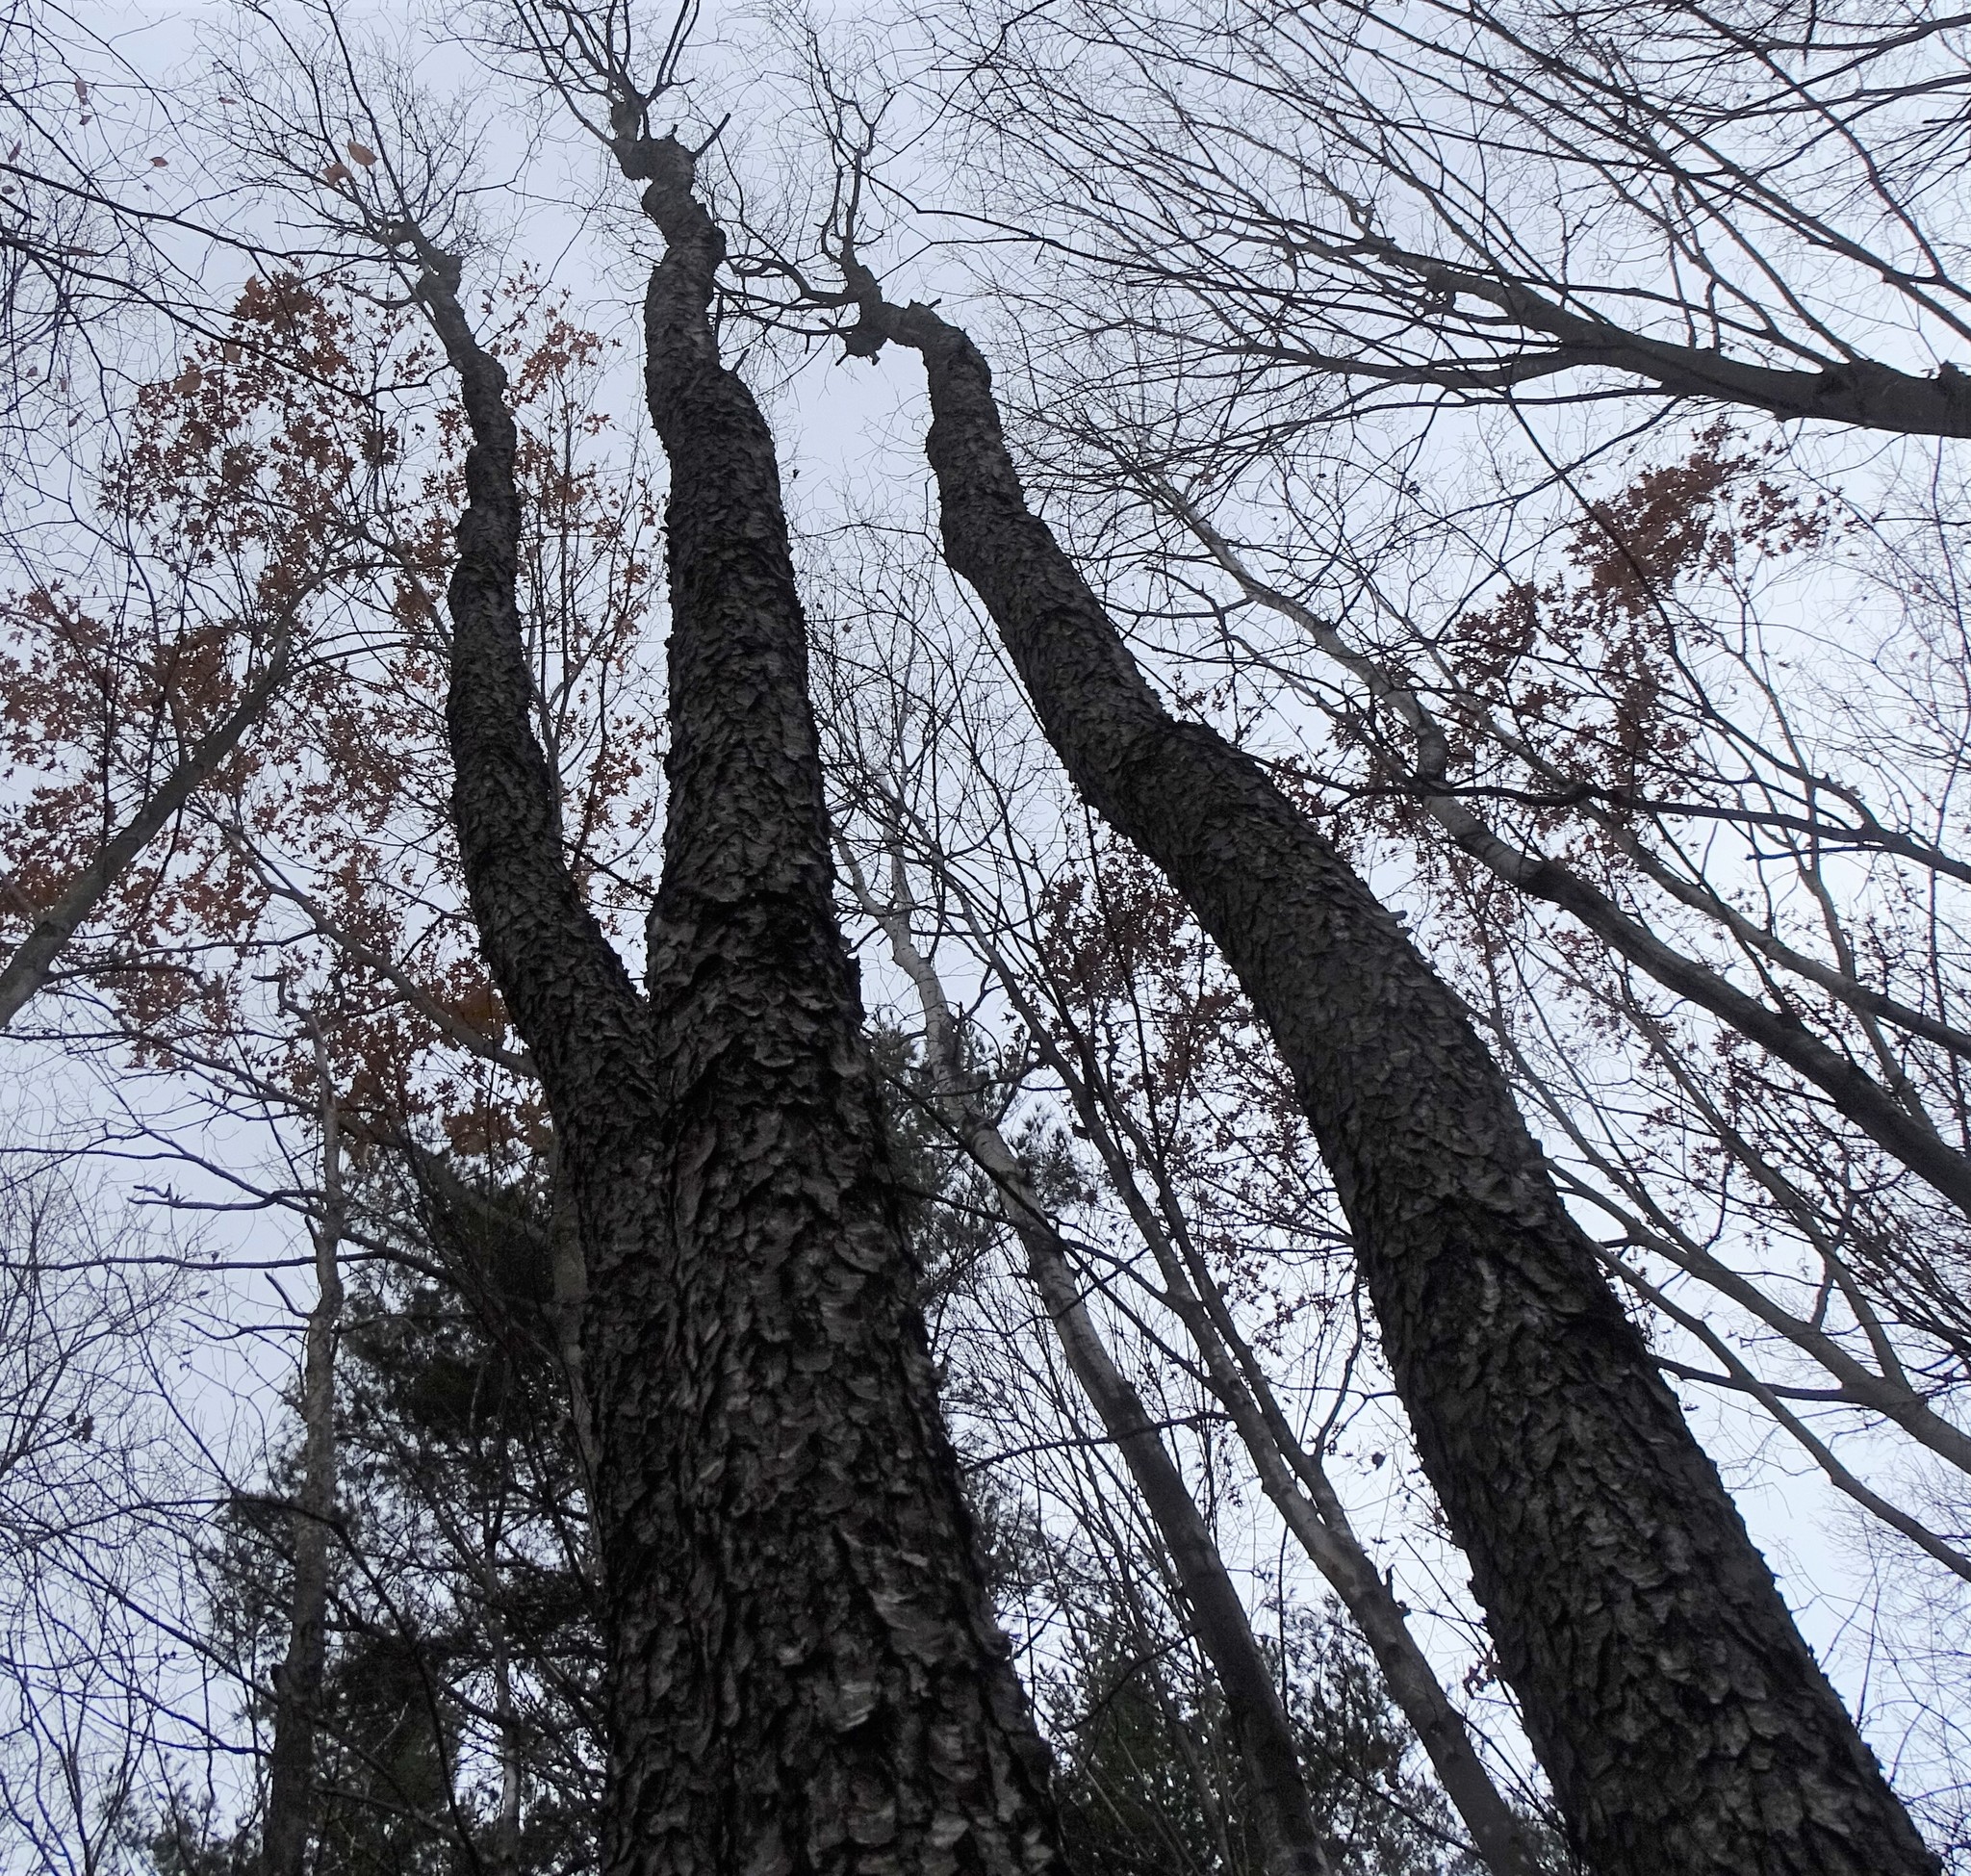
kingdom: Plantae
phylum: Tracheophyta
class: Magnoliopsida
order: Rosales
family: Rosaceae
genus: Prunus
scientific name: Prunus serotina
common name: Black cherry
